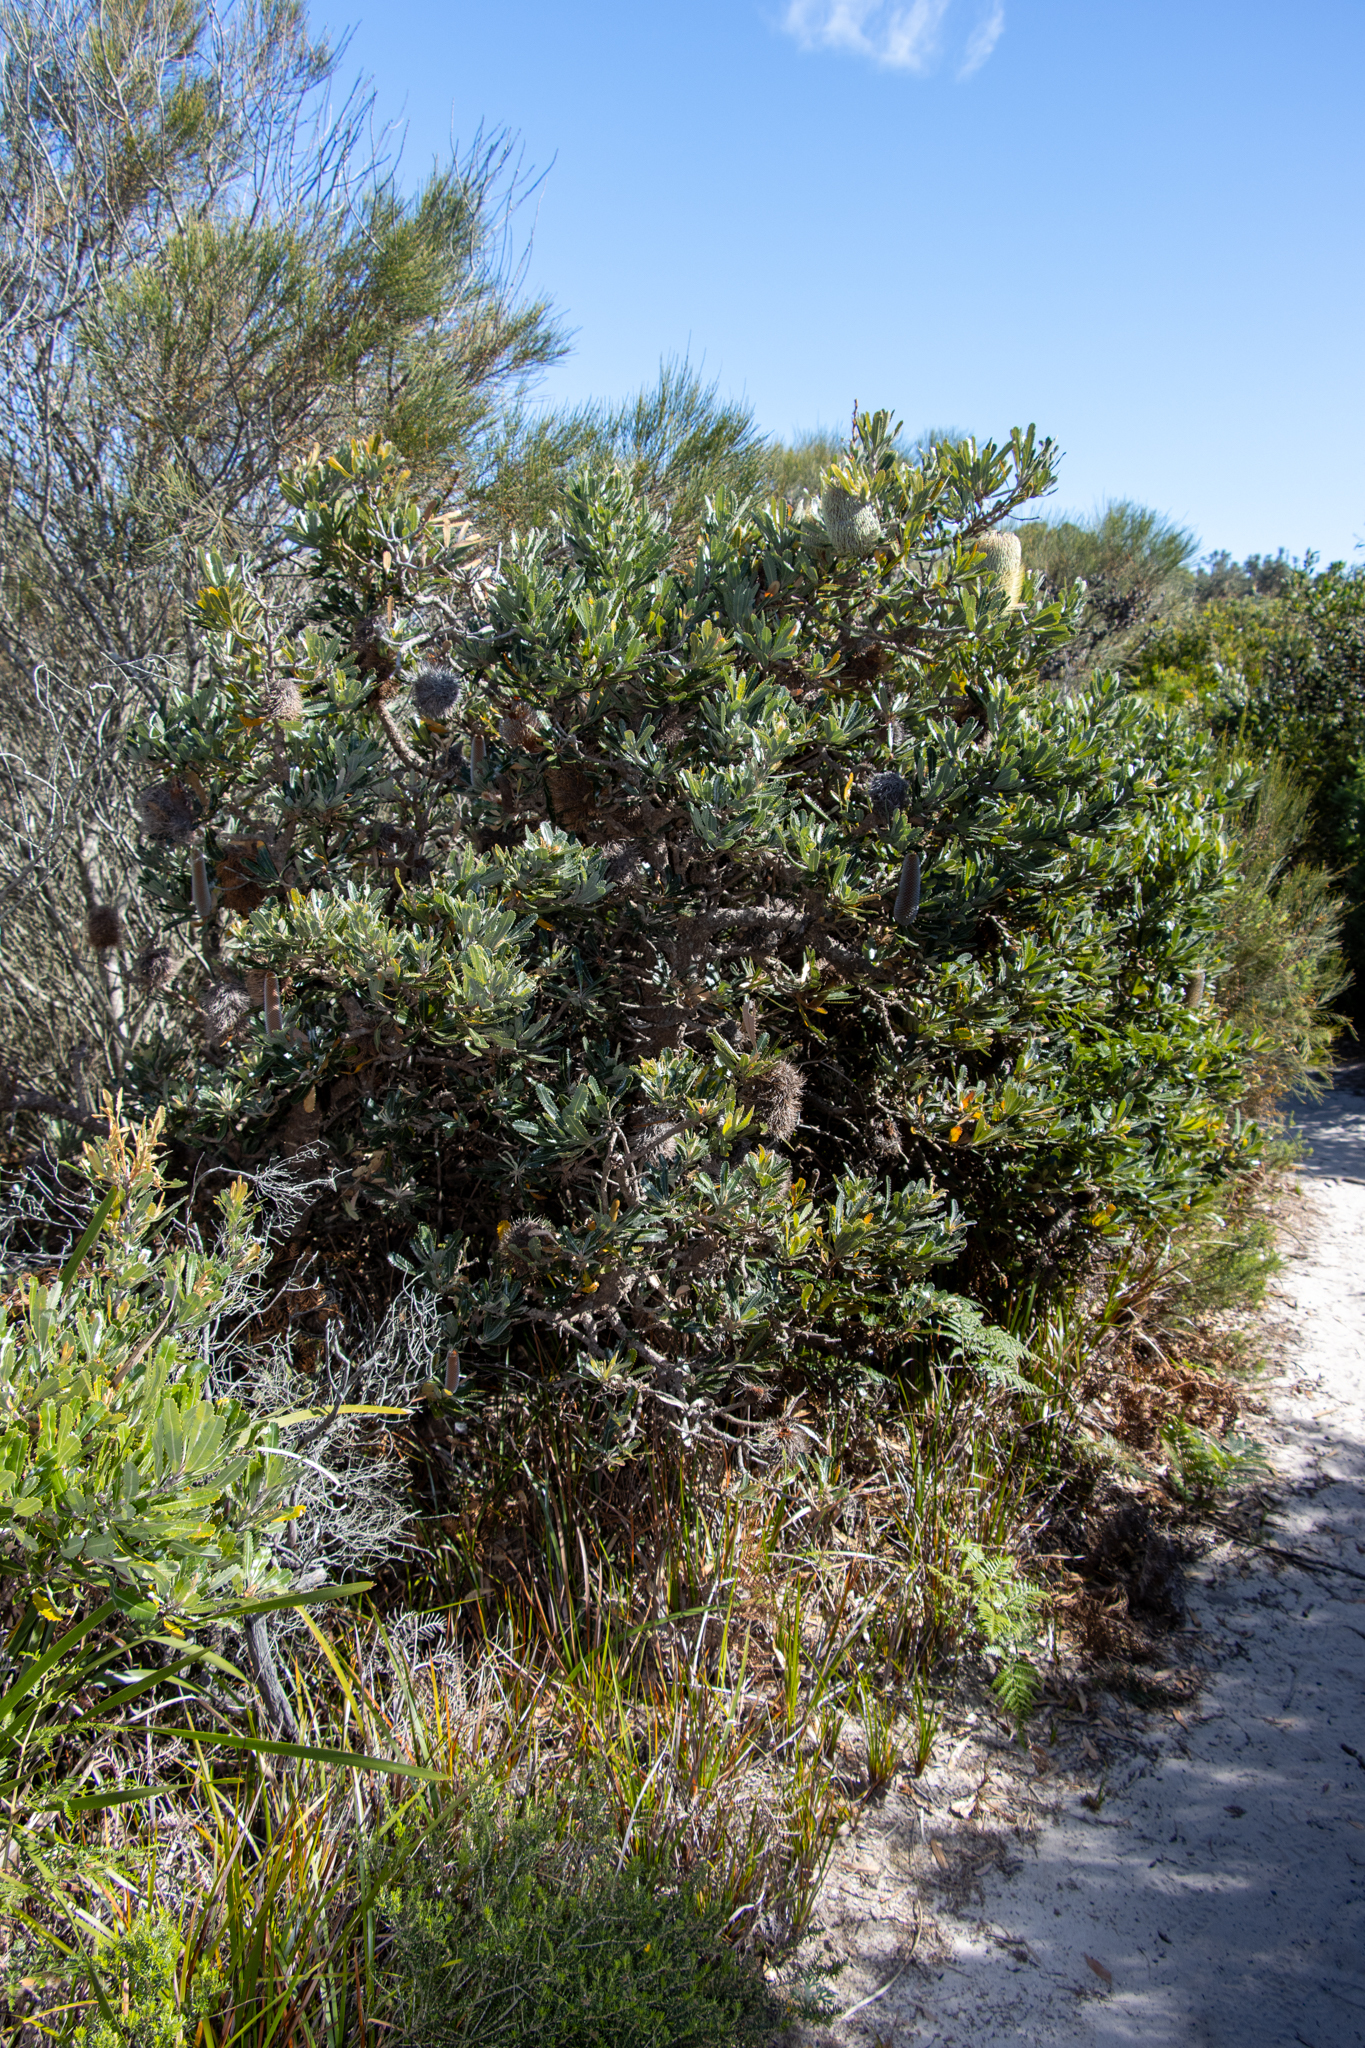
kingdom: Plantae
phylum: Tracheophyta
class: Magnoliopsida
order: Proteales
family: Proteaceae
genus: Banksia
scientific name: Banksia serrata
